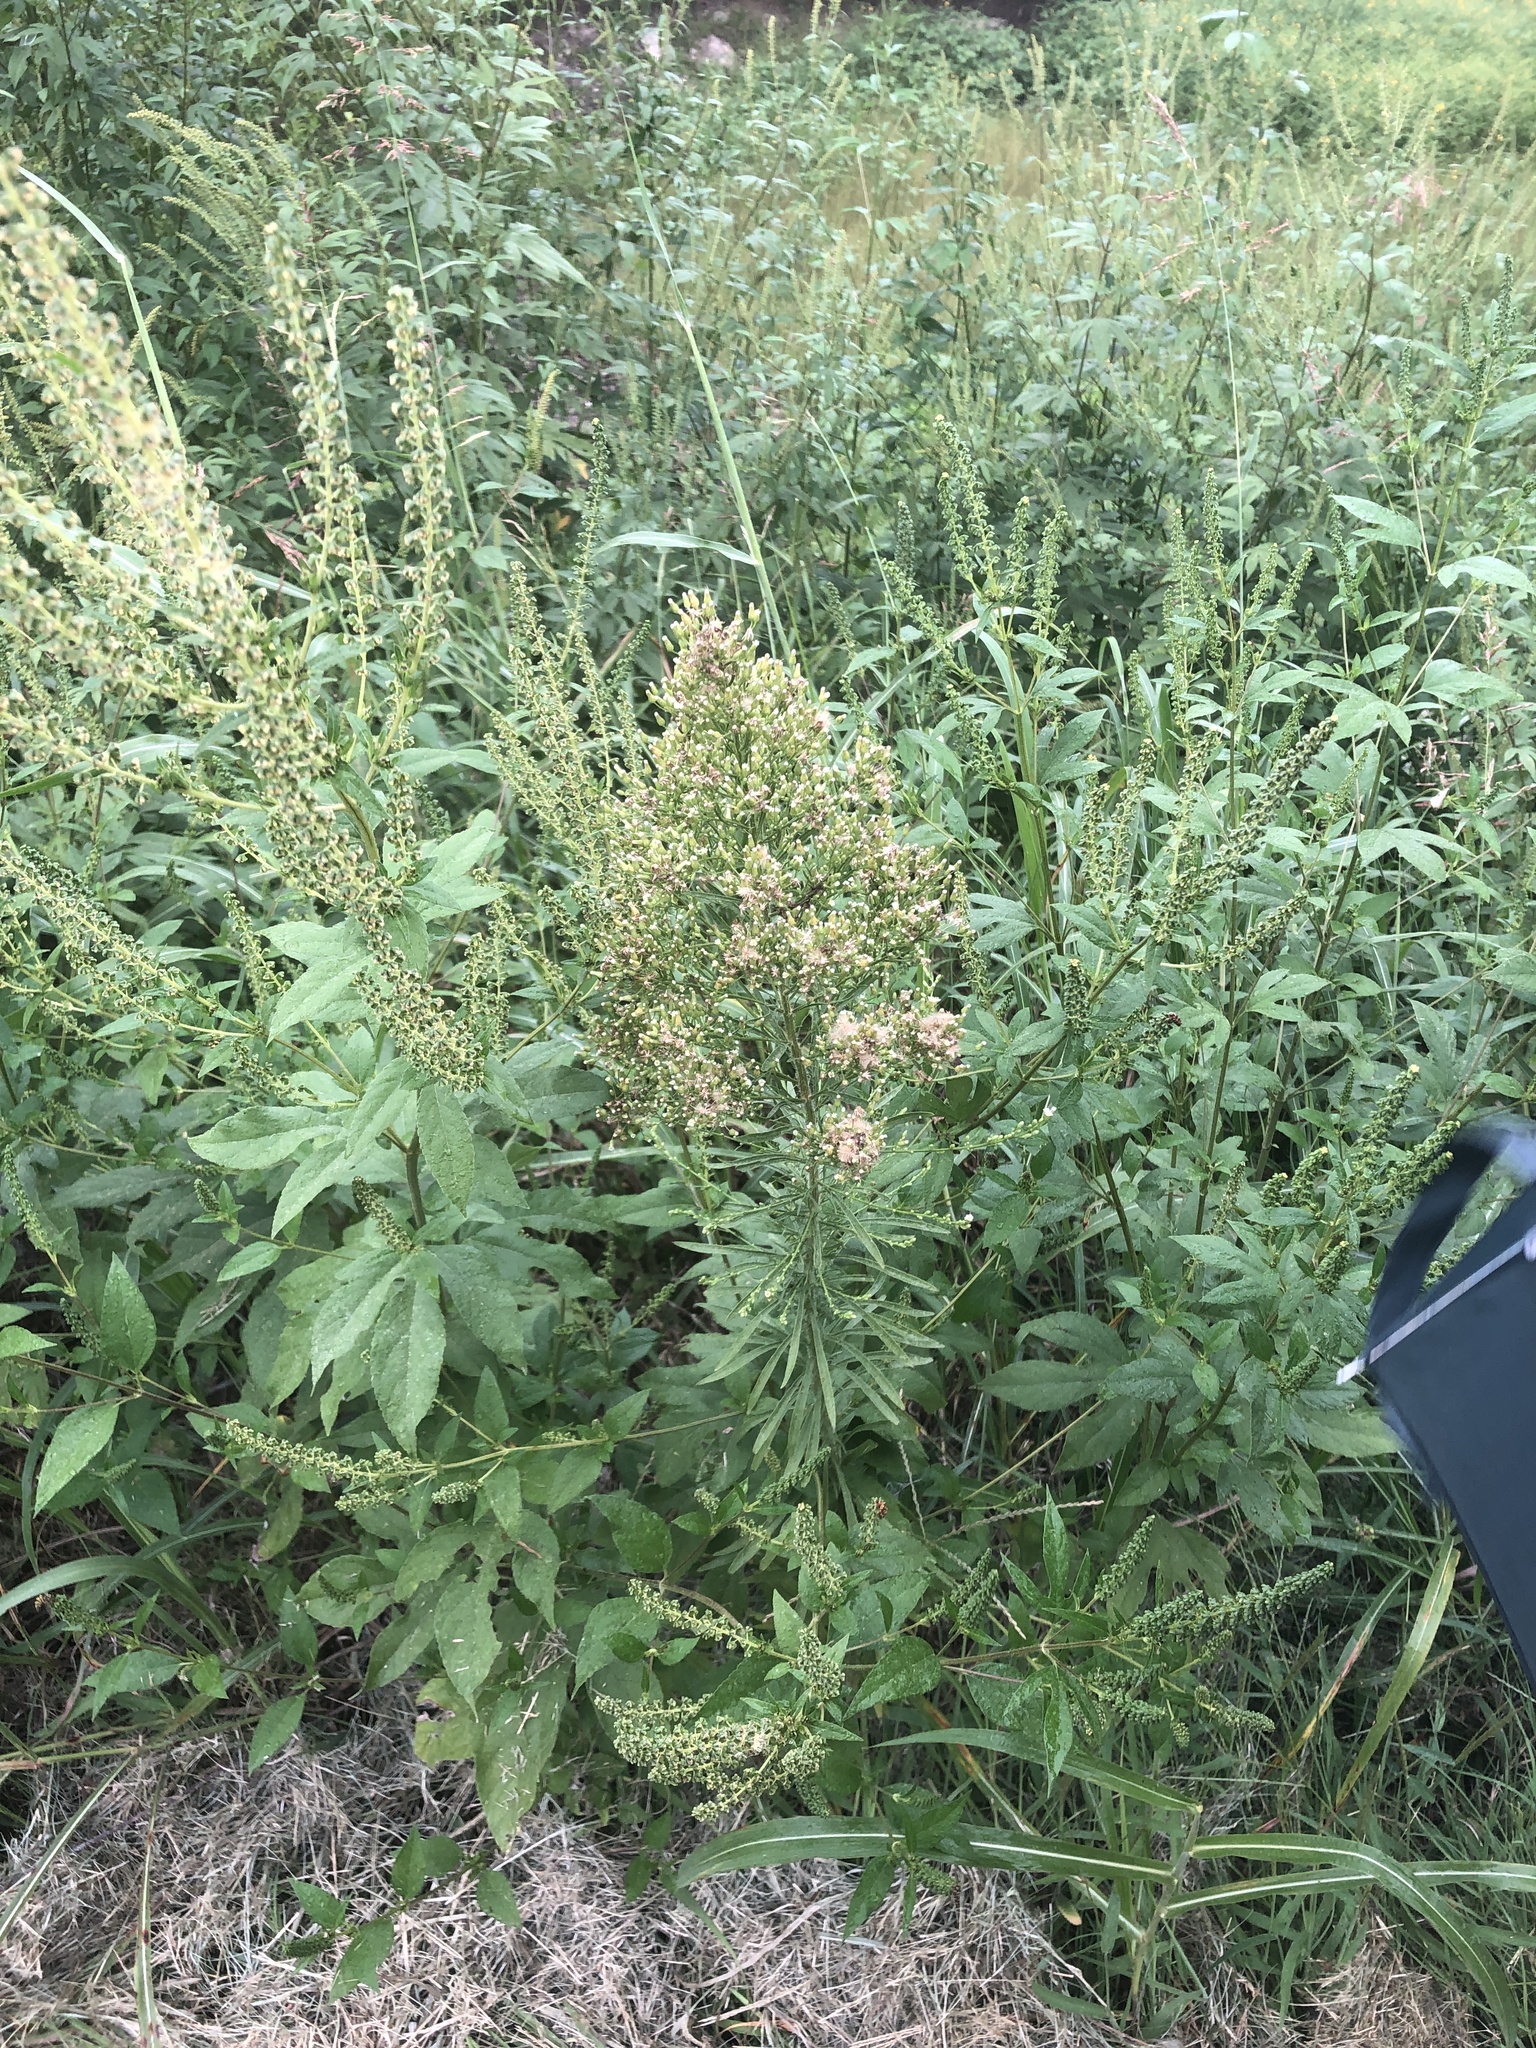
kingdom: Plantae
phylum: Tracheophyta
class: Magnoliopsida
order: Asterales
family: Asteraceae
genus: Erigeron
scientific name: Erigeron canadensis
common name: Canadian fleabane
